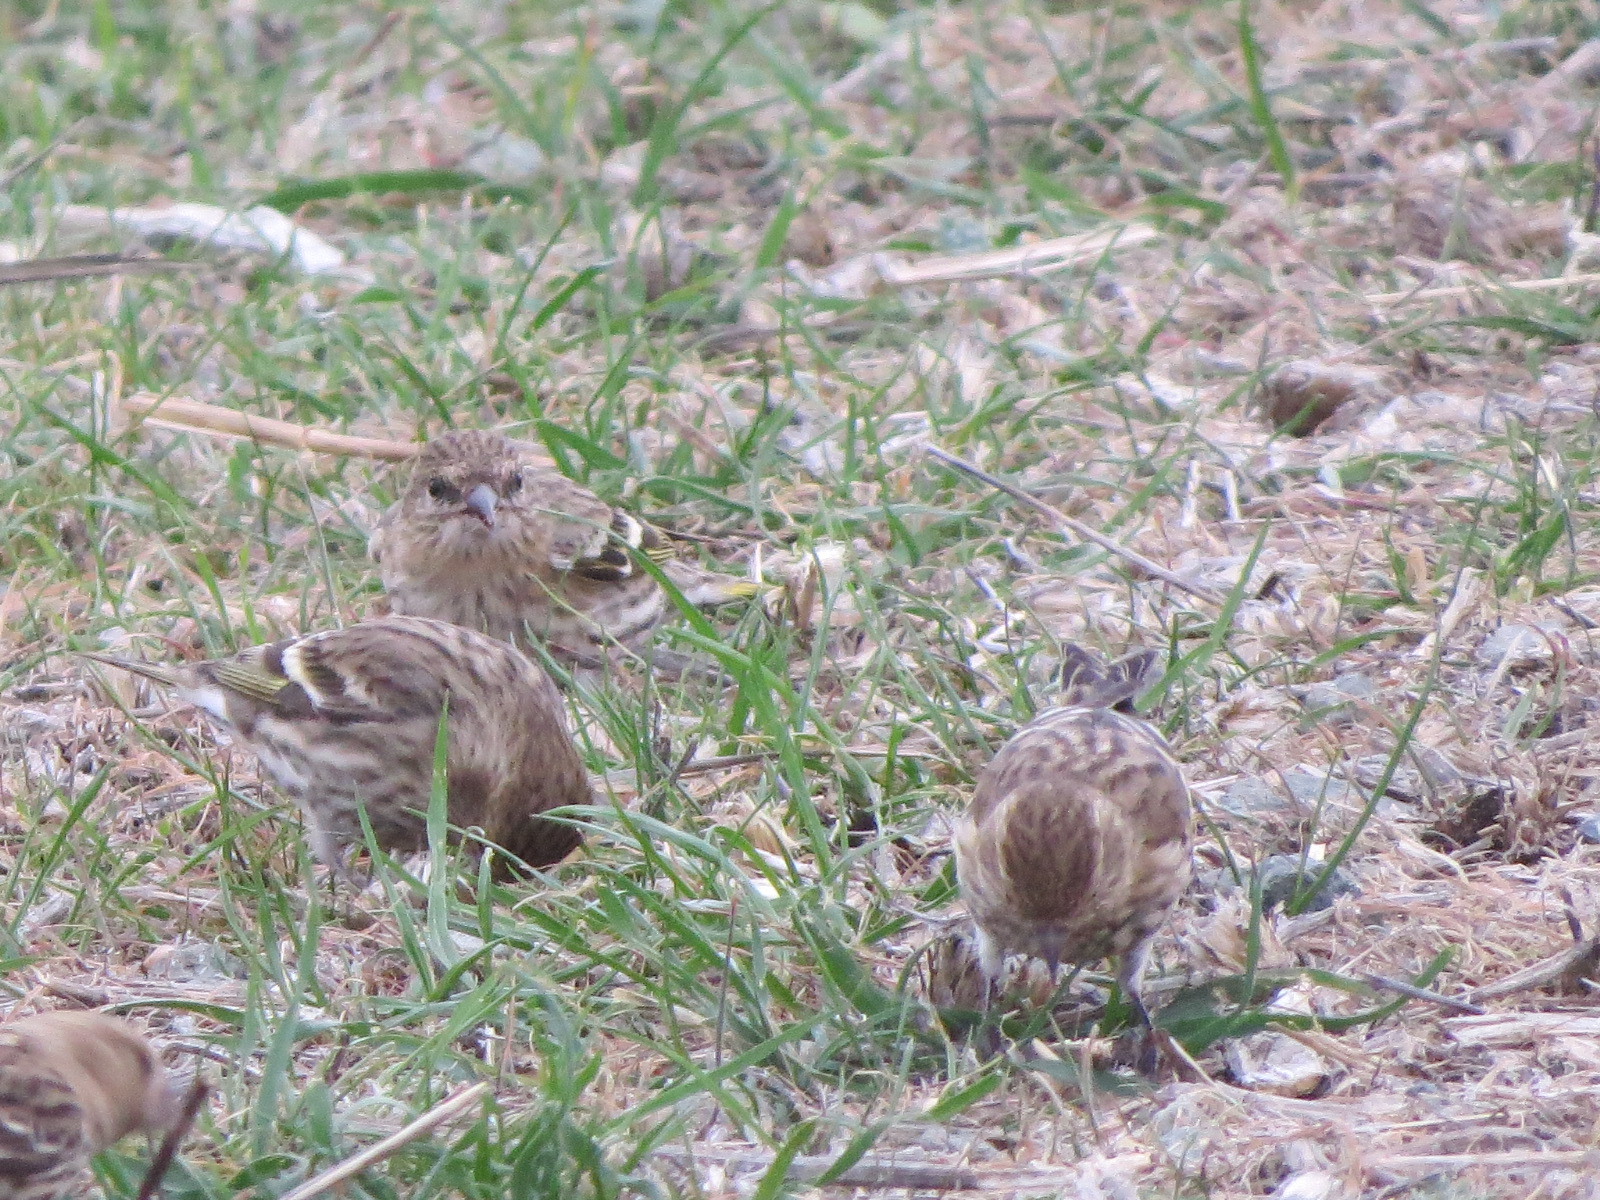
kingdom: Animalia
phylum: Chordata
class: Aves
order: Passeriformes
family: Fringillidae
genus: Spinus
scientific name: Spinus pinus
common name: Pine siskin
